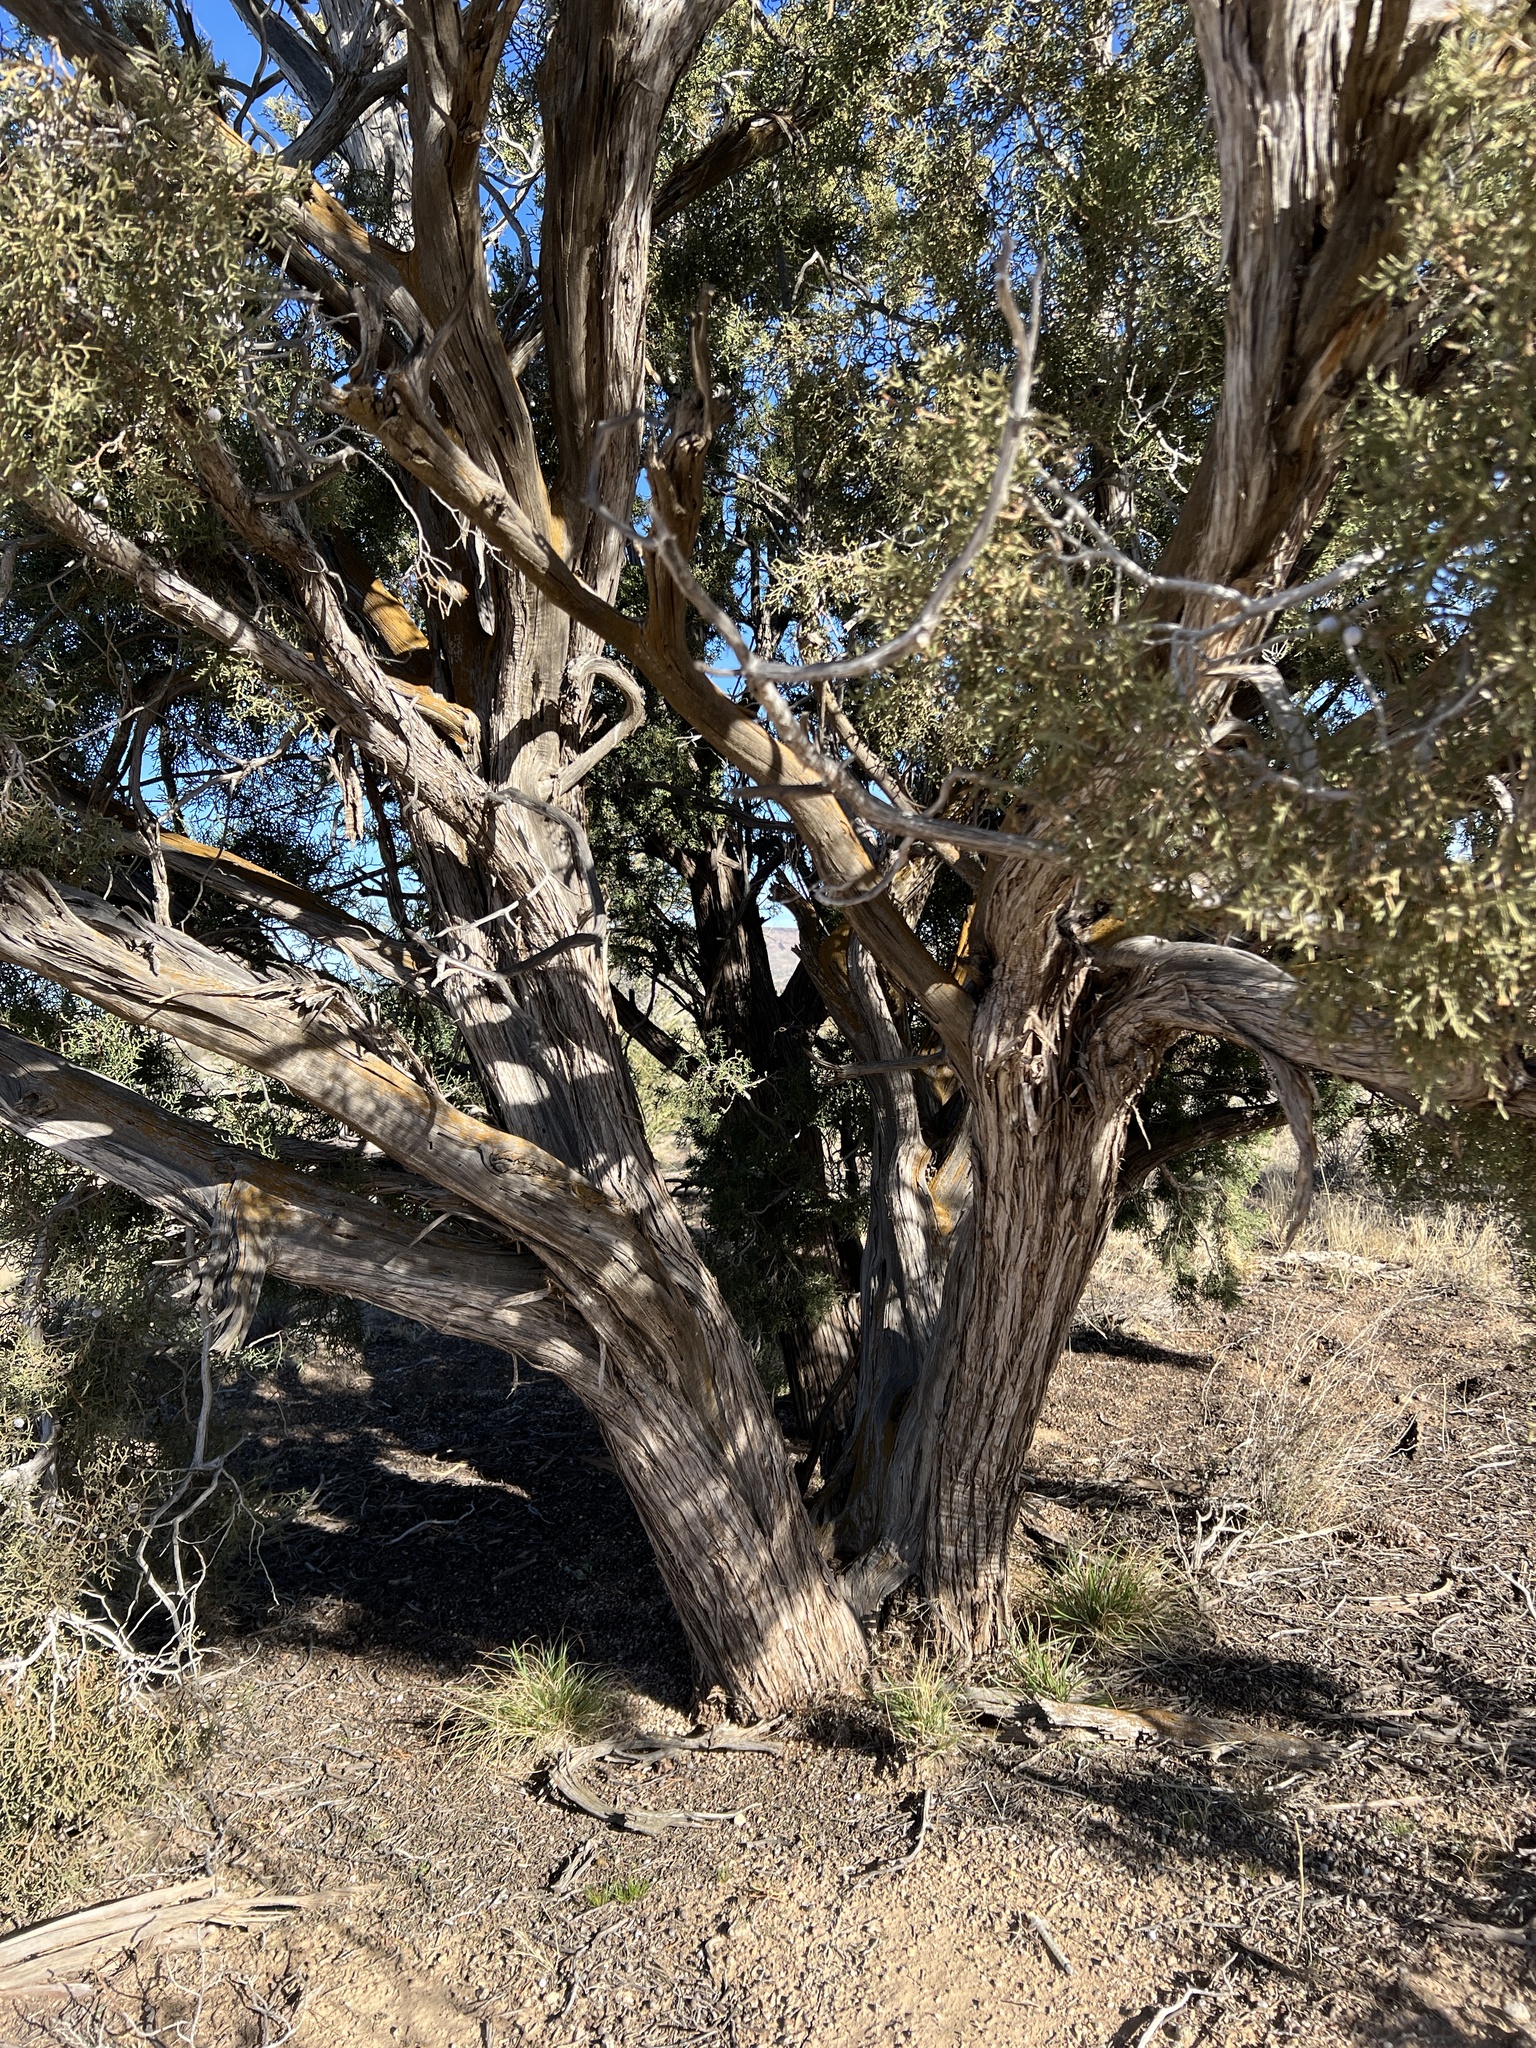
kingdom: Plantae
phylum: Tracheophyta
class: Pinopsida
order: Pinales
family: Cupressaceae
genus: Juniperus
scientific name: Juniperus osteosperma
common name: Utah juniper
